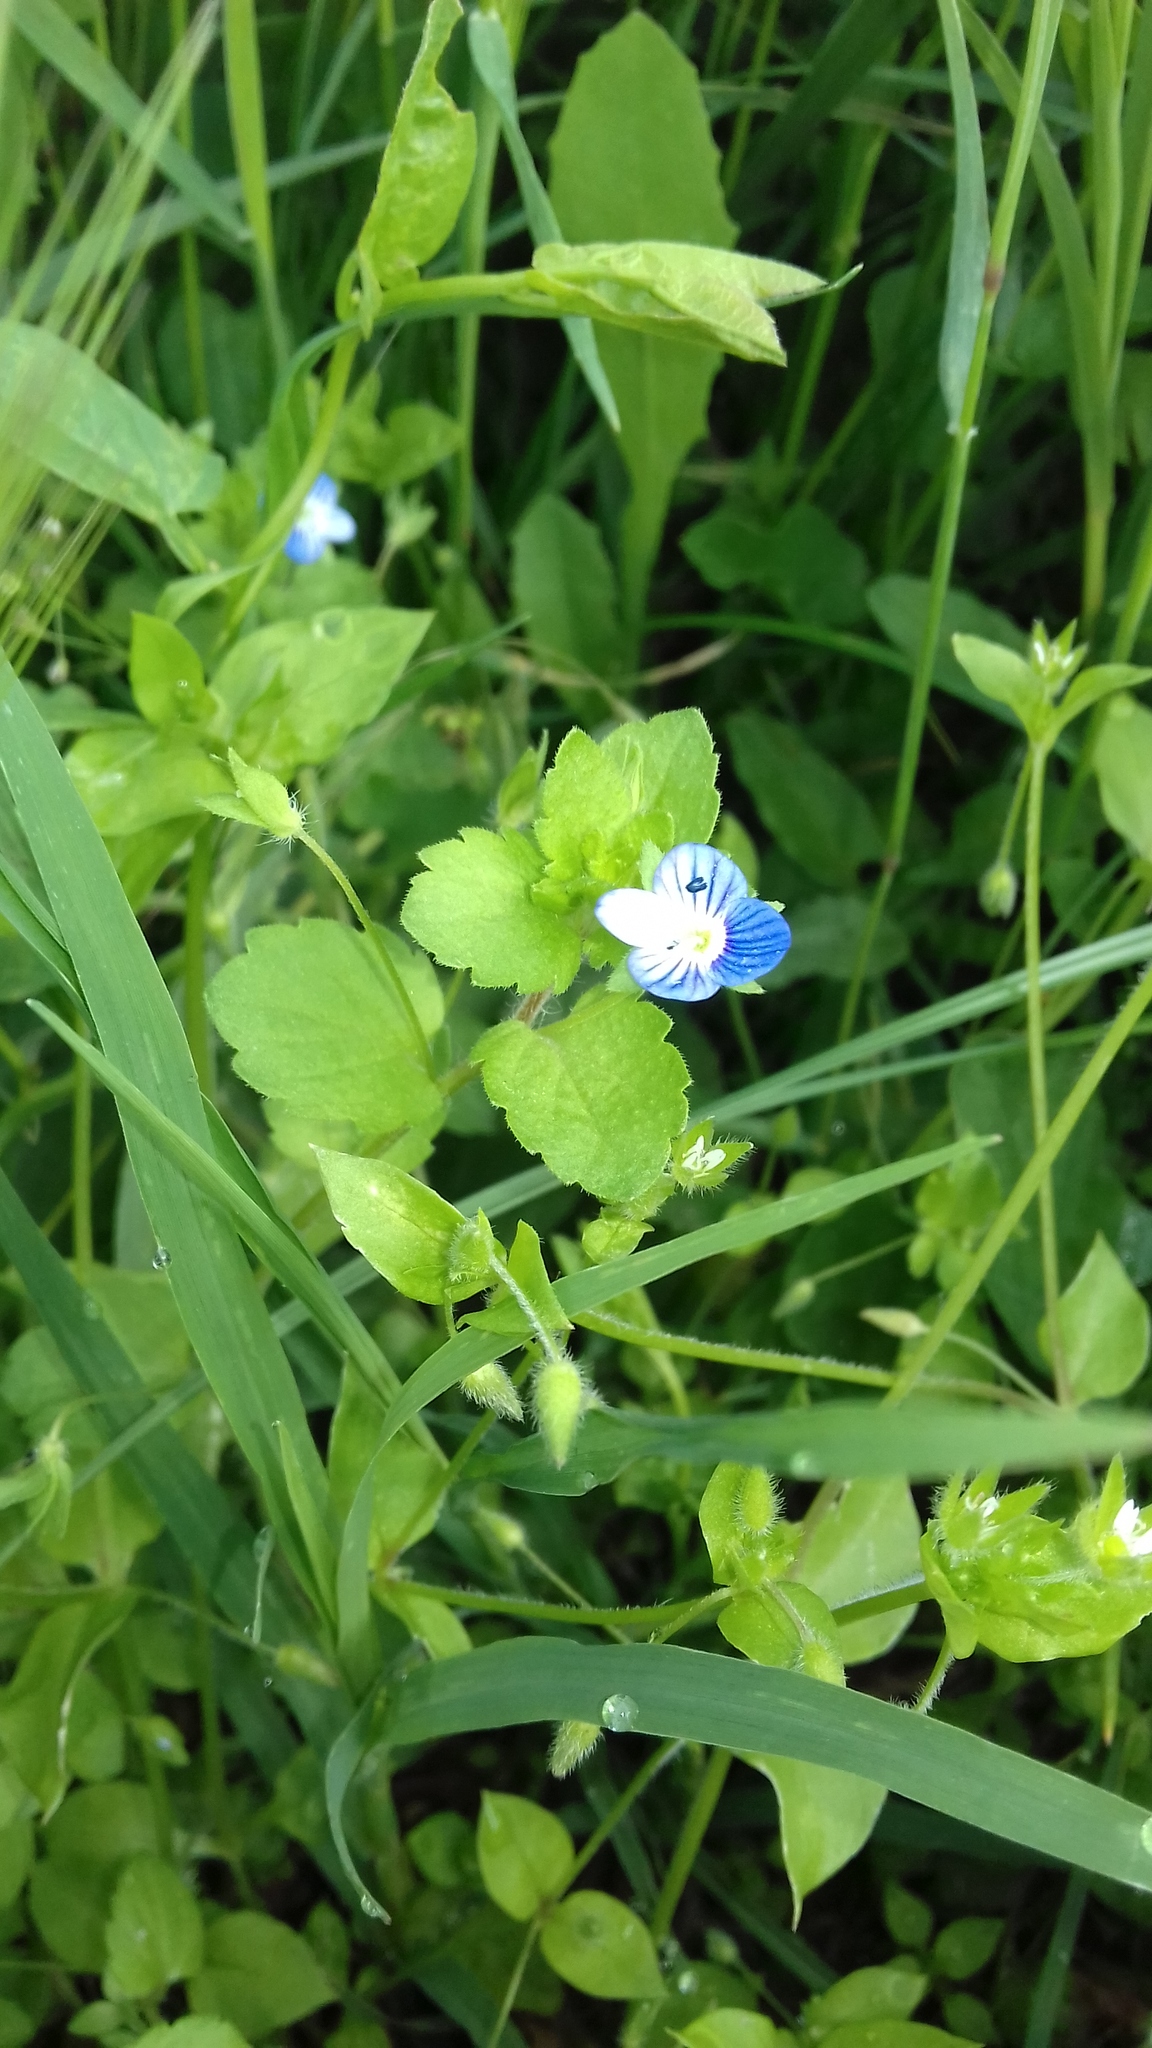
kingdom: Plantae
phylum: Tracheophyta
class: Magnoliopsida
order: Lamiales
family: Plantaginaceae
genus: Veronica
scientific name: Veronica persica
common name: Common field-speedwell
